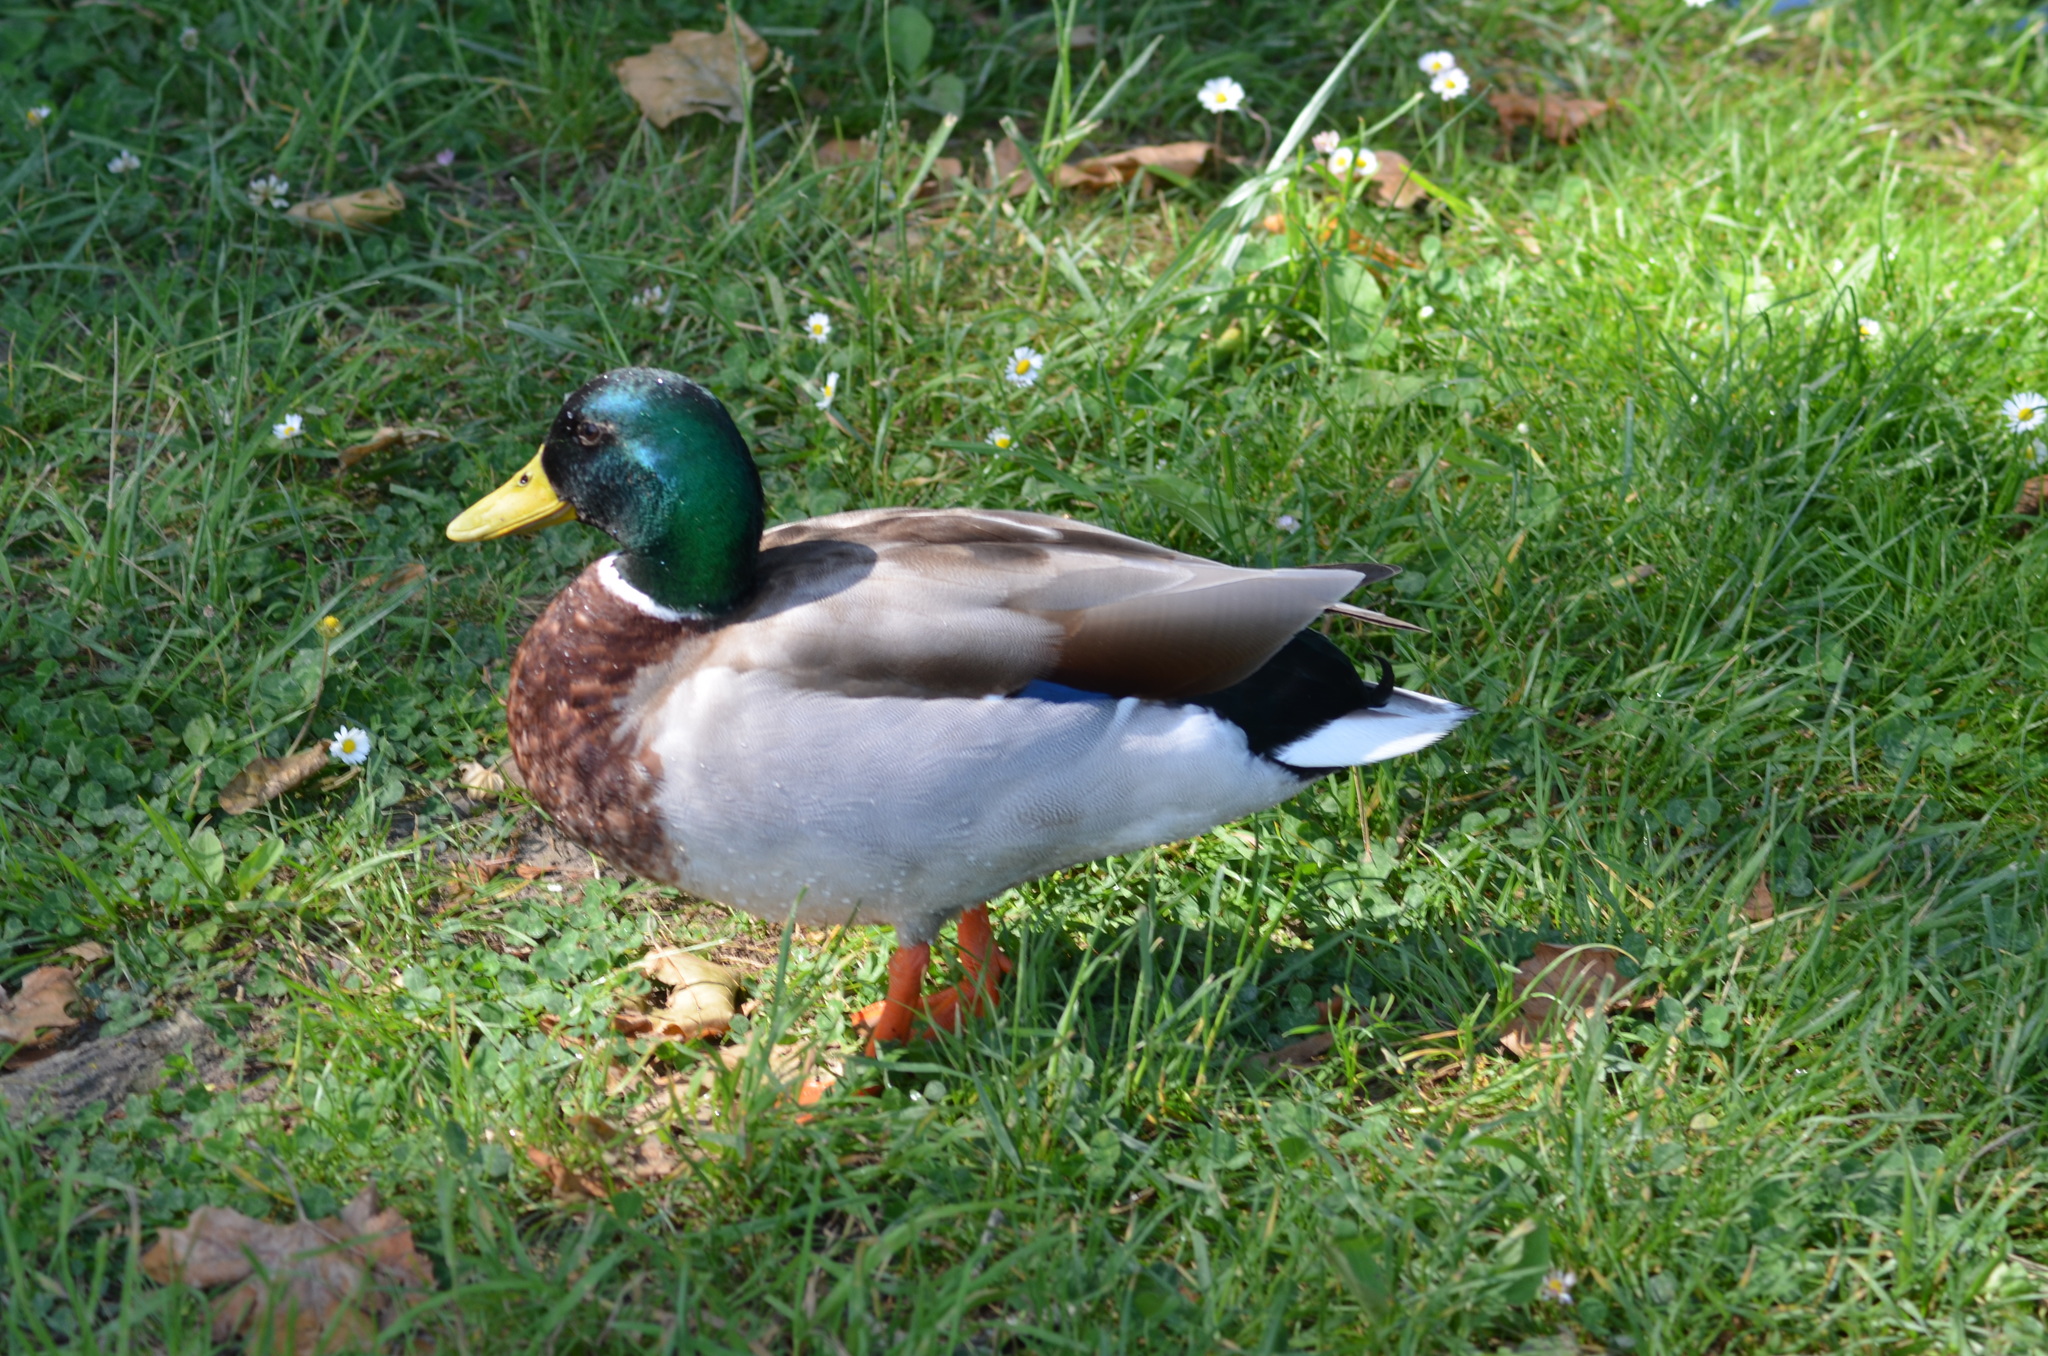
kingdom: Animalia
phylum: Chordata
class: Aves
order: Anseriformes
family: Anatidae
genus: Anas
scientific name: Anas platyrhynchos
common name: Mallard
